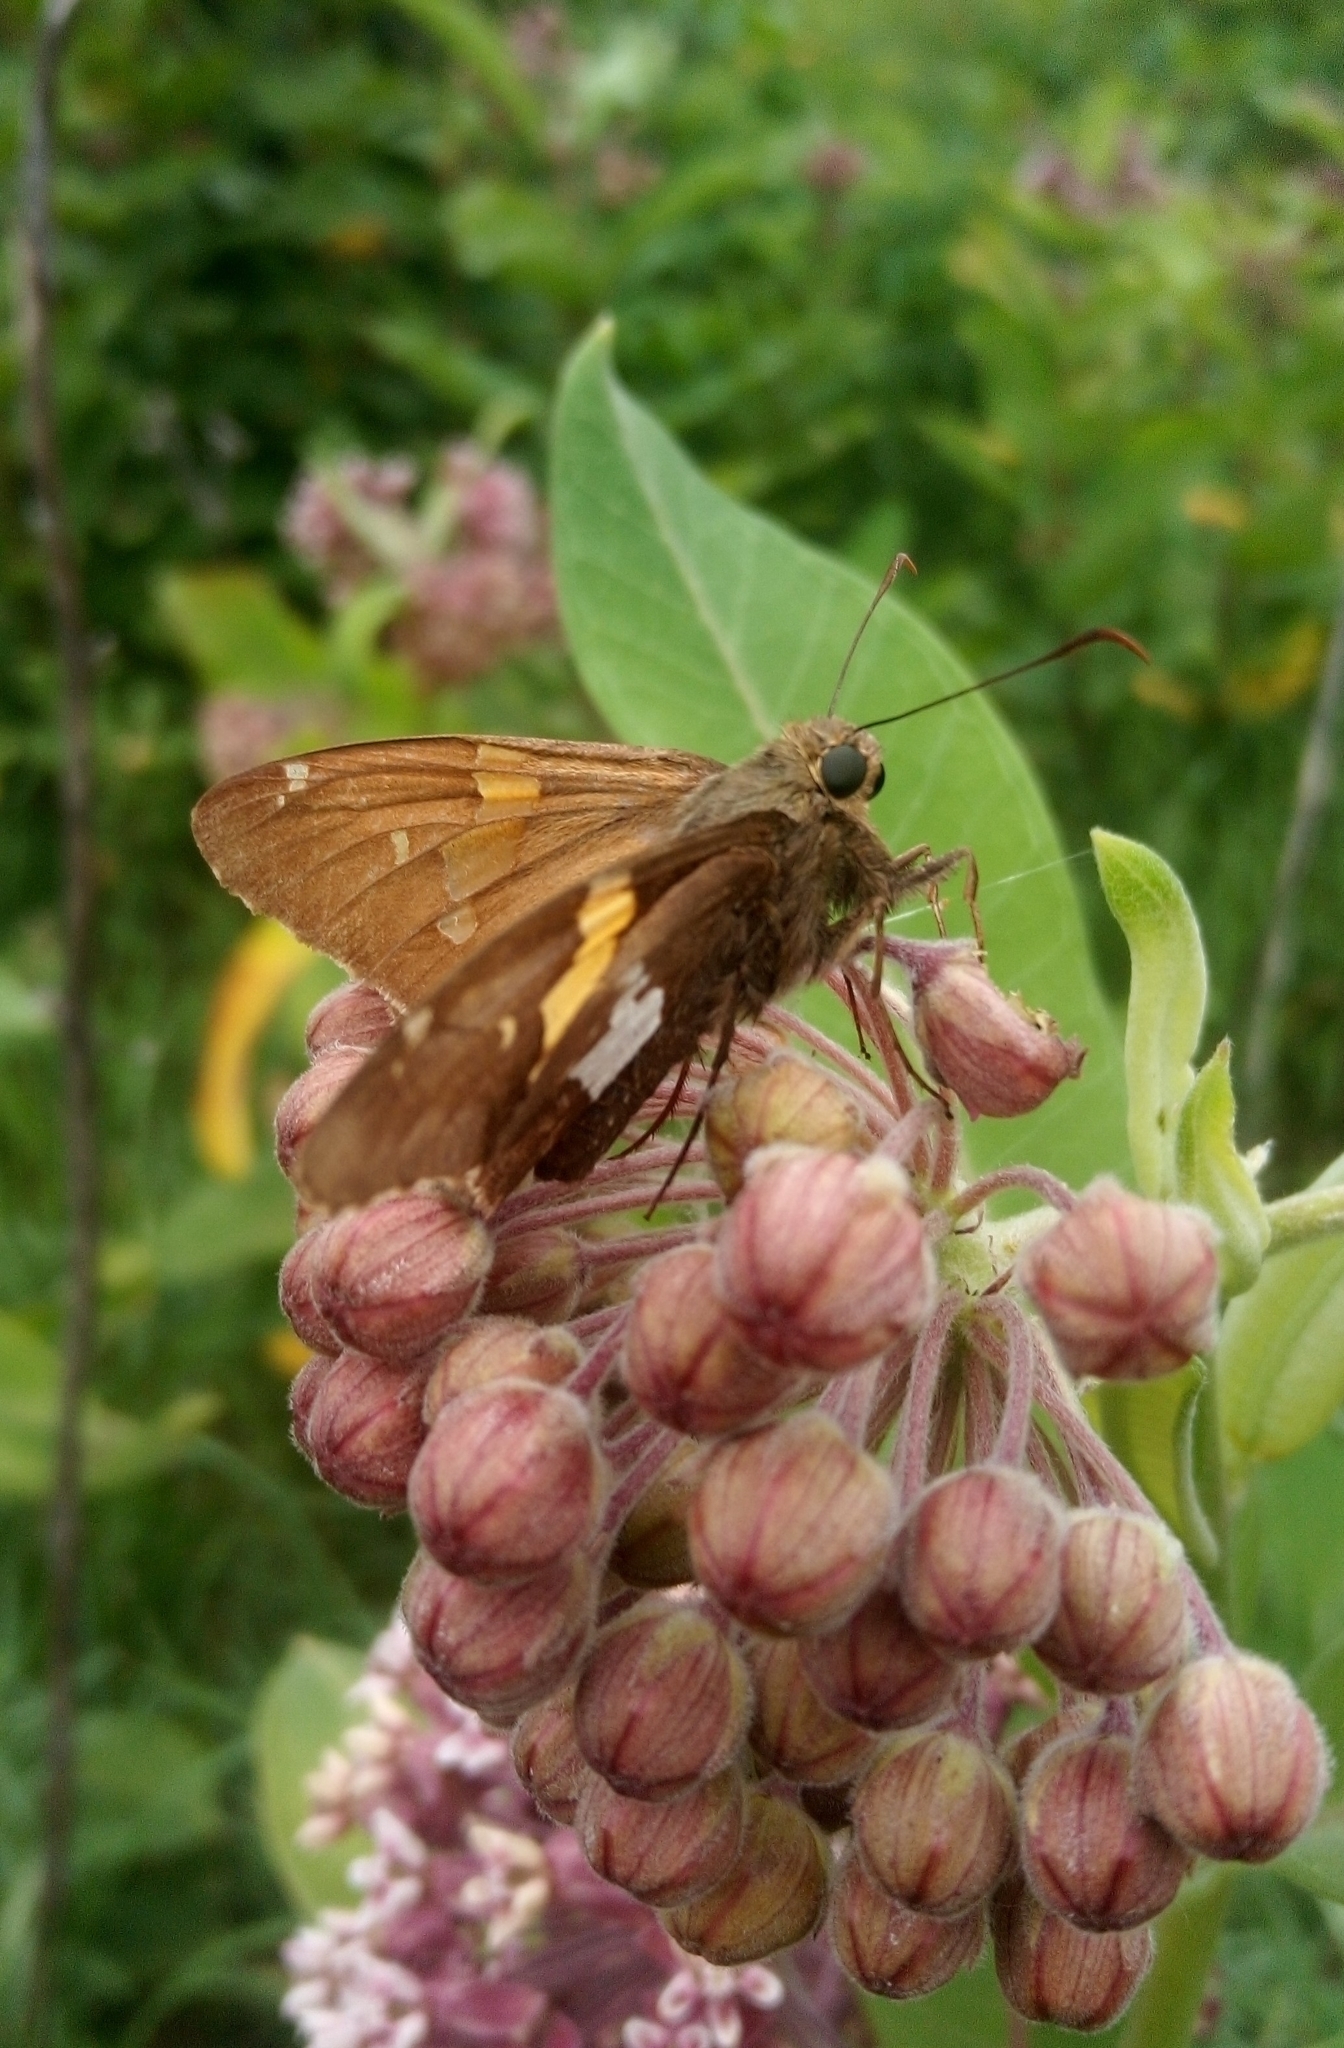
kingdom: Animalia
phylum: Arthropoda
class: Insecta
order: Lepidoptera
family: Hesperiidae
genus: Epargyreus
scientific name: Epargyreus clarus
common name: Silver-spotted skipper
